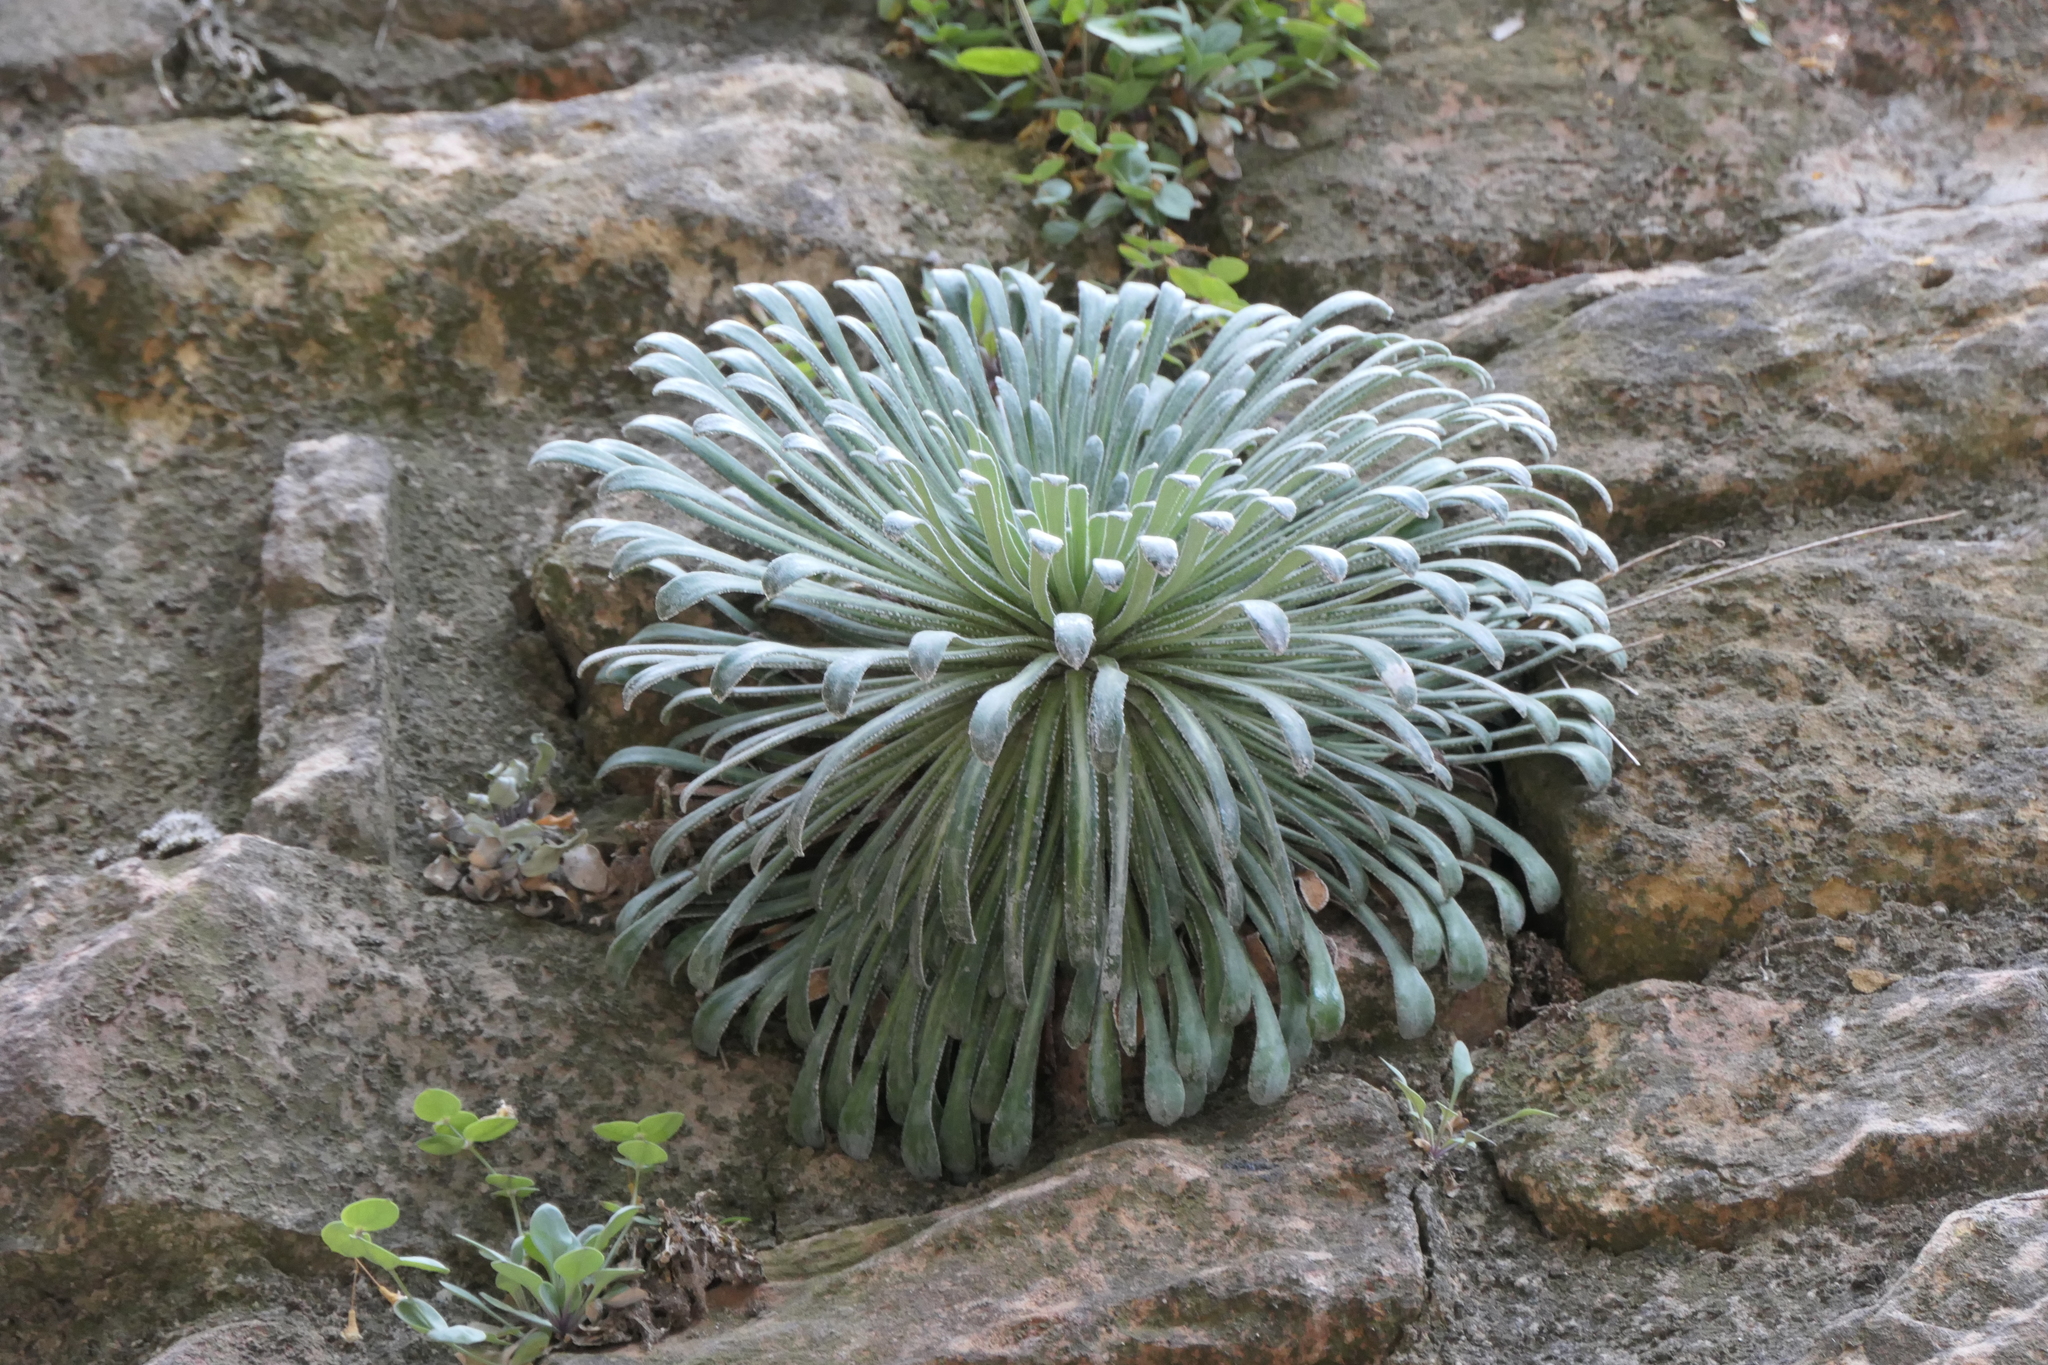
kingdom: Plantae
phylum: Tracheophyta
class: Magnoliopsida
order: Saxifragales
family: Saxifragaceae
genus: Saxifraga
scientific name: Saxifraga longifolia
